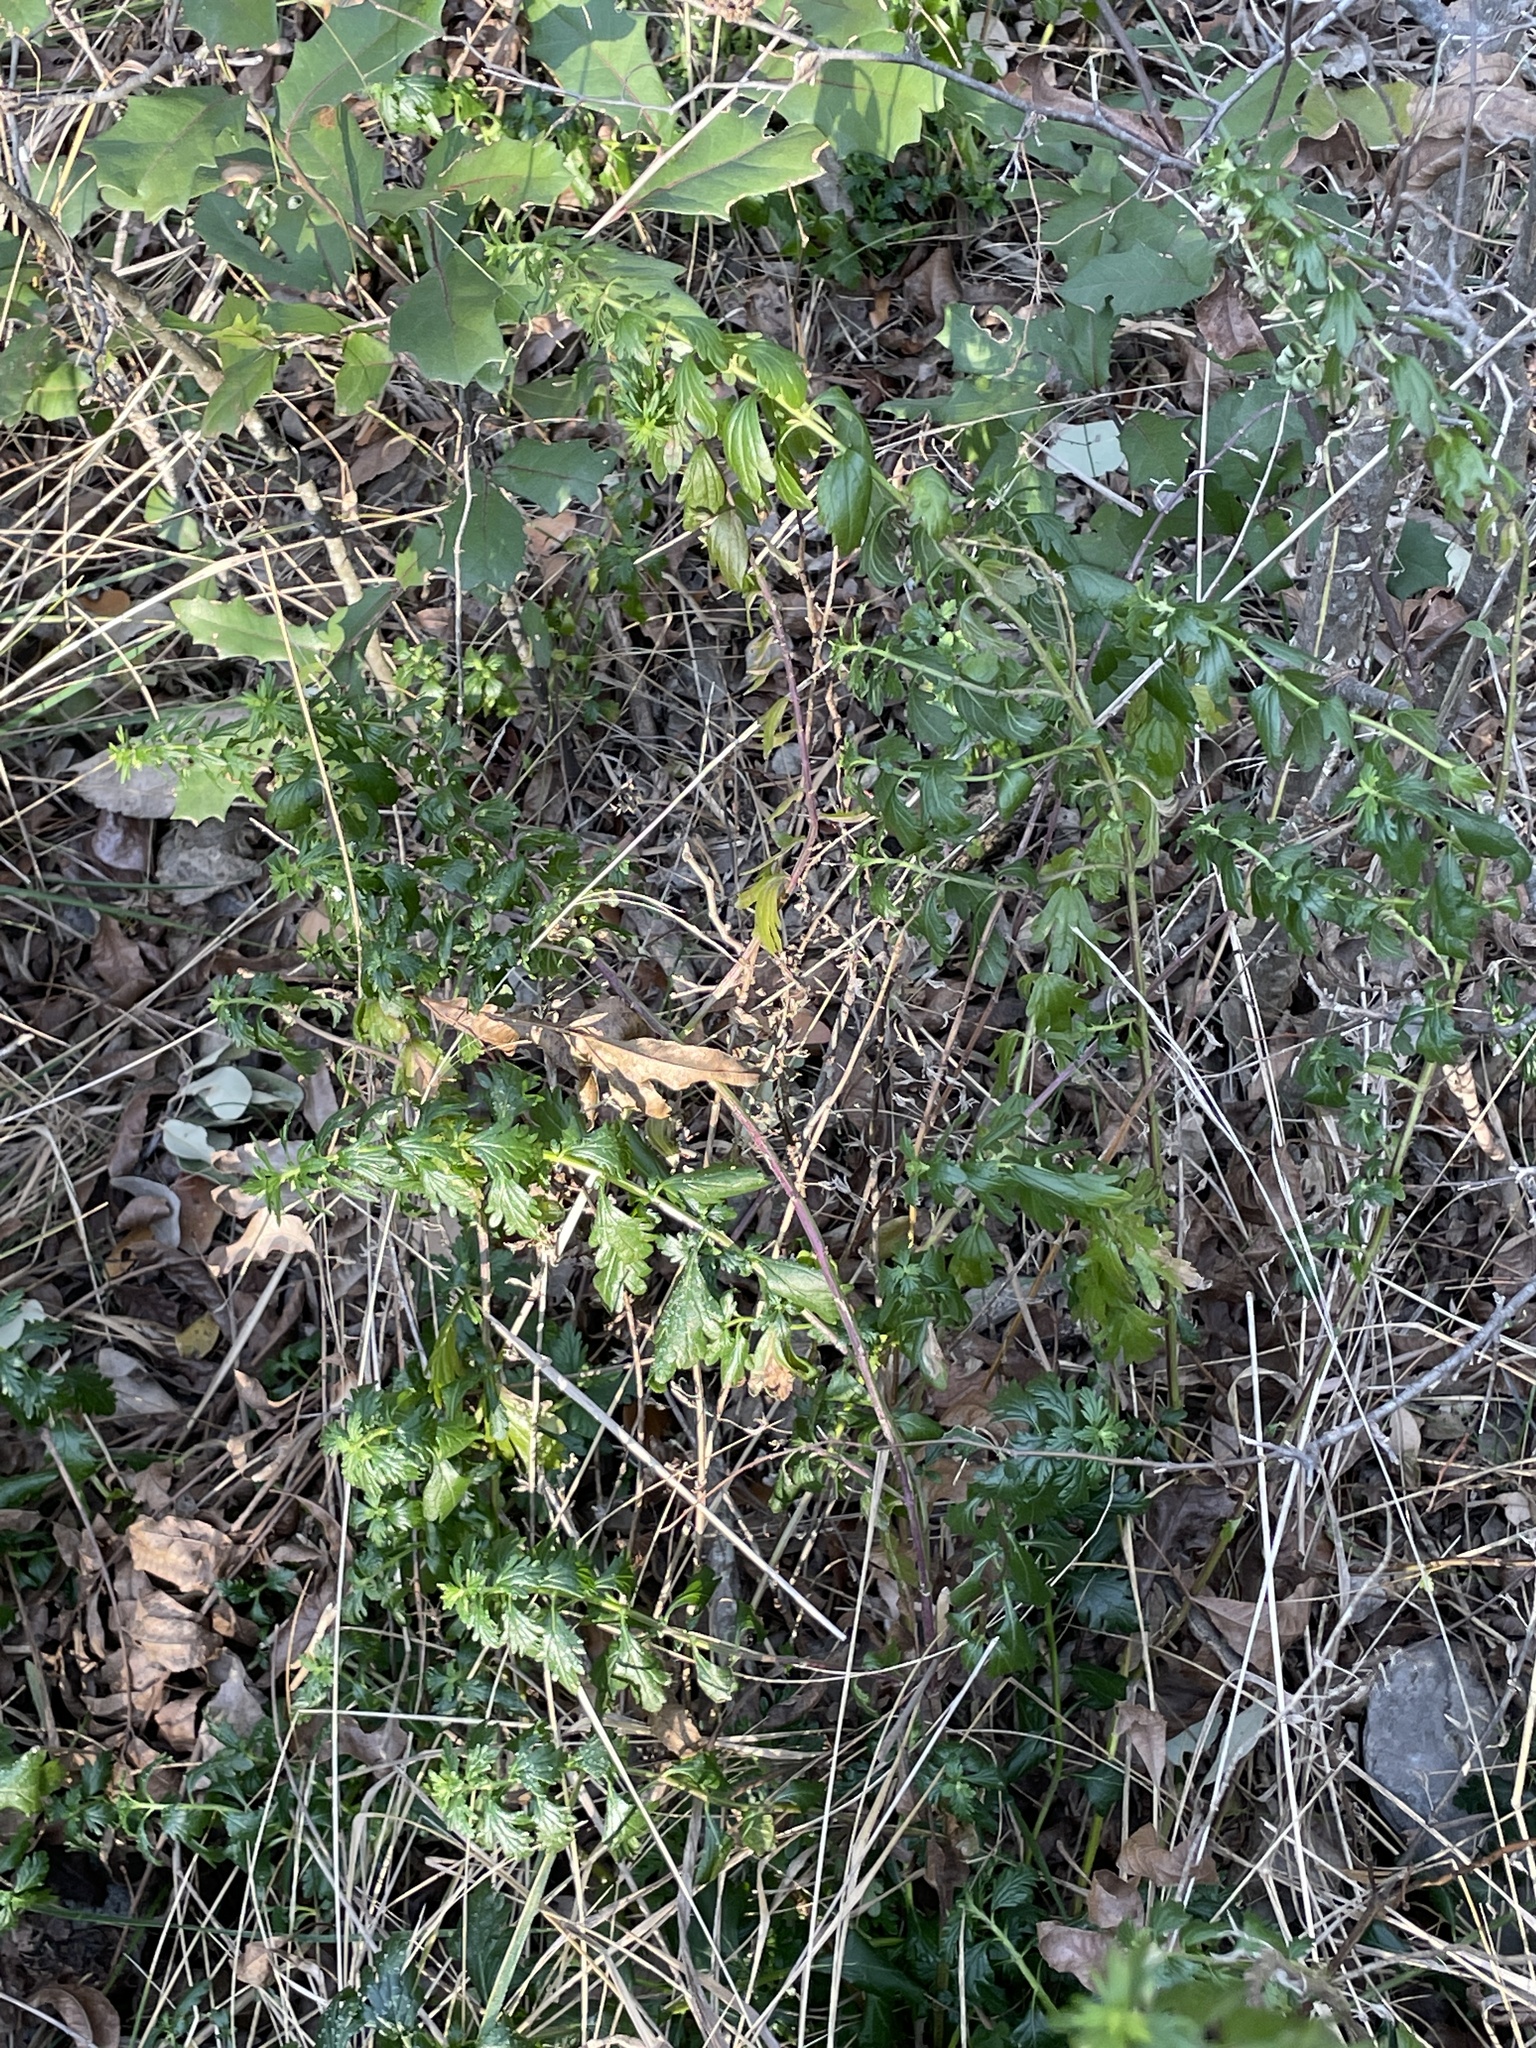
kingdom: Plantae
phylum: Tracheophyta
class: Magnoliopsida
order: Lamiales
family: Lamiaceae
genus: Teucrium
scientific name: Teucrium cubense
